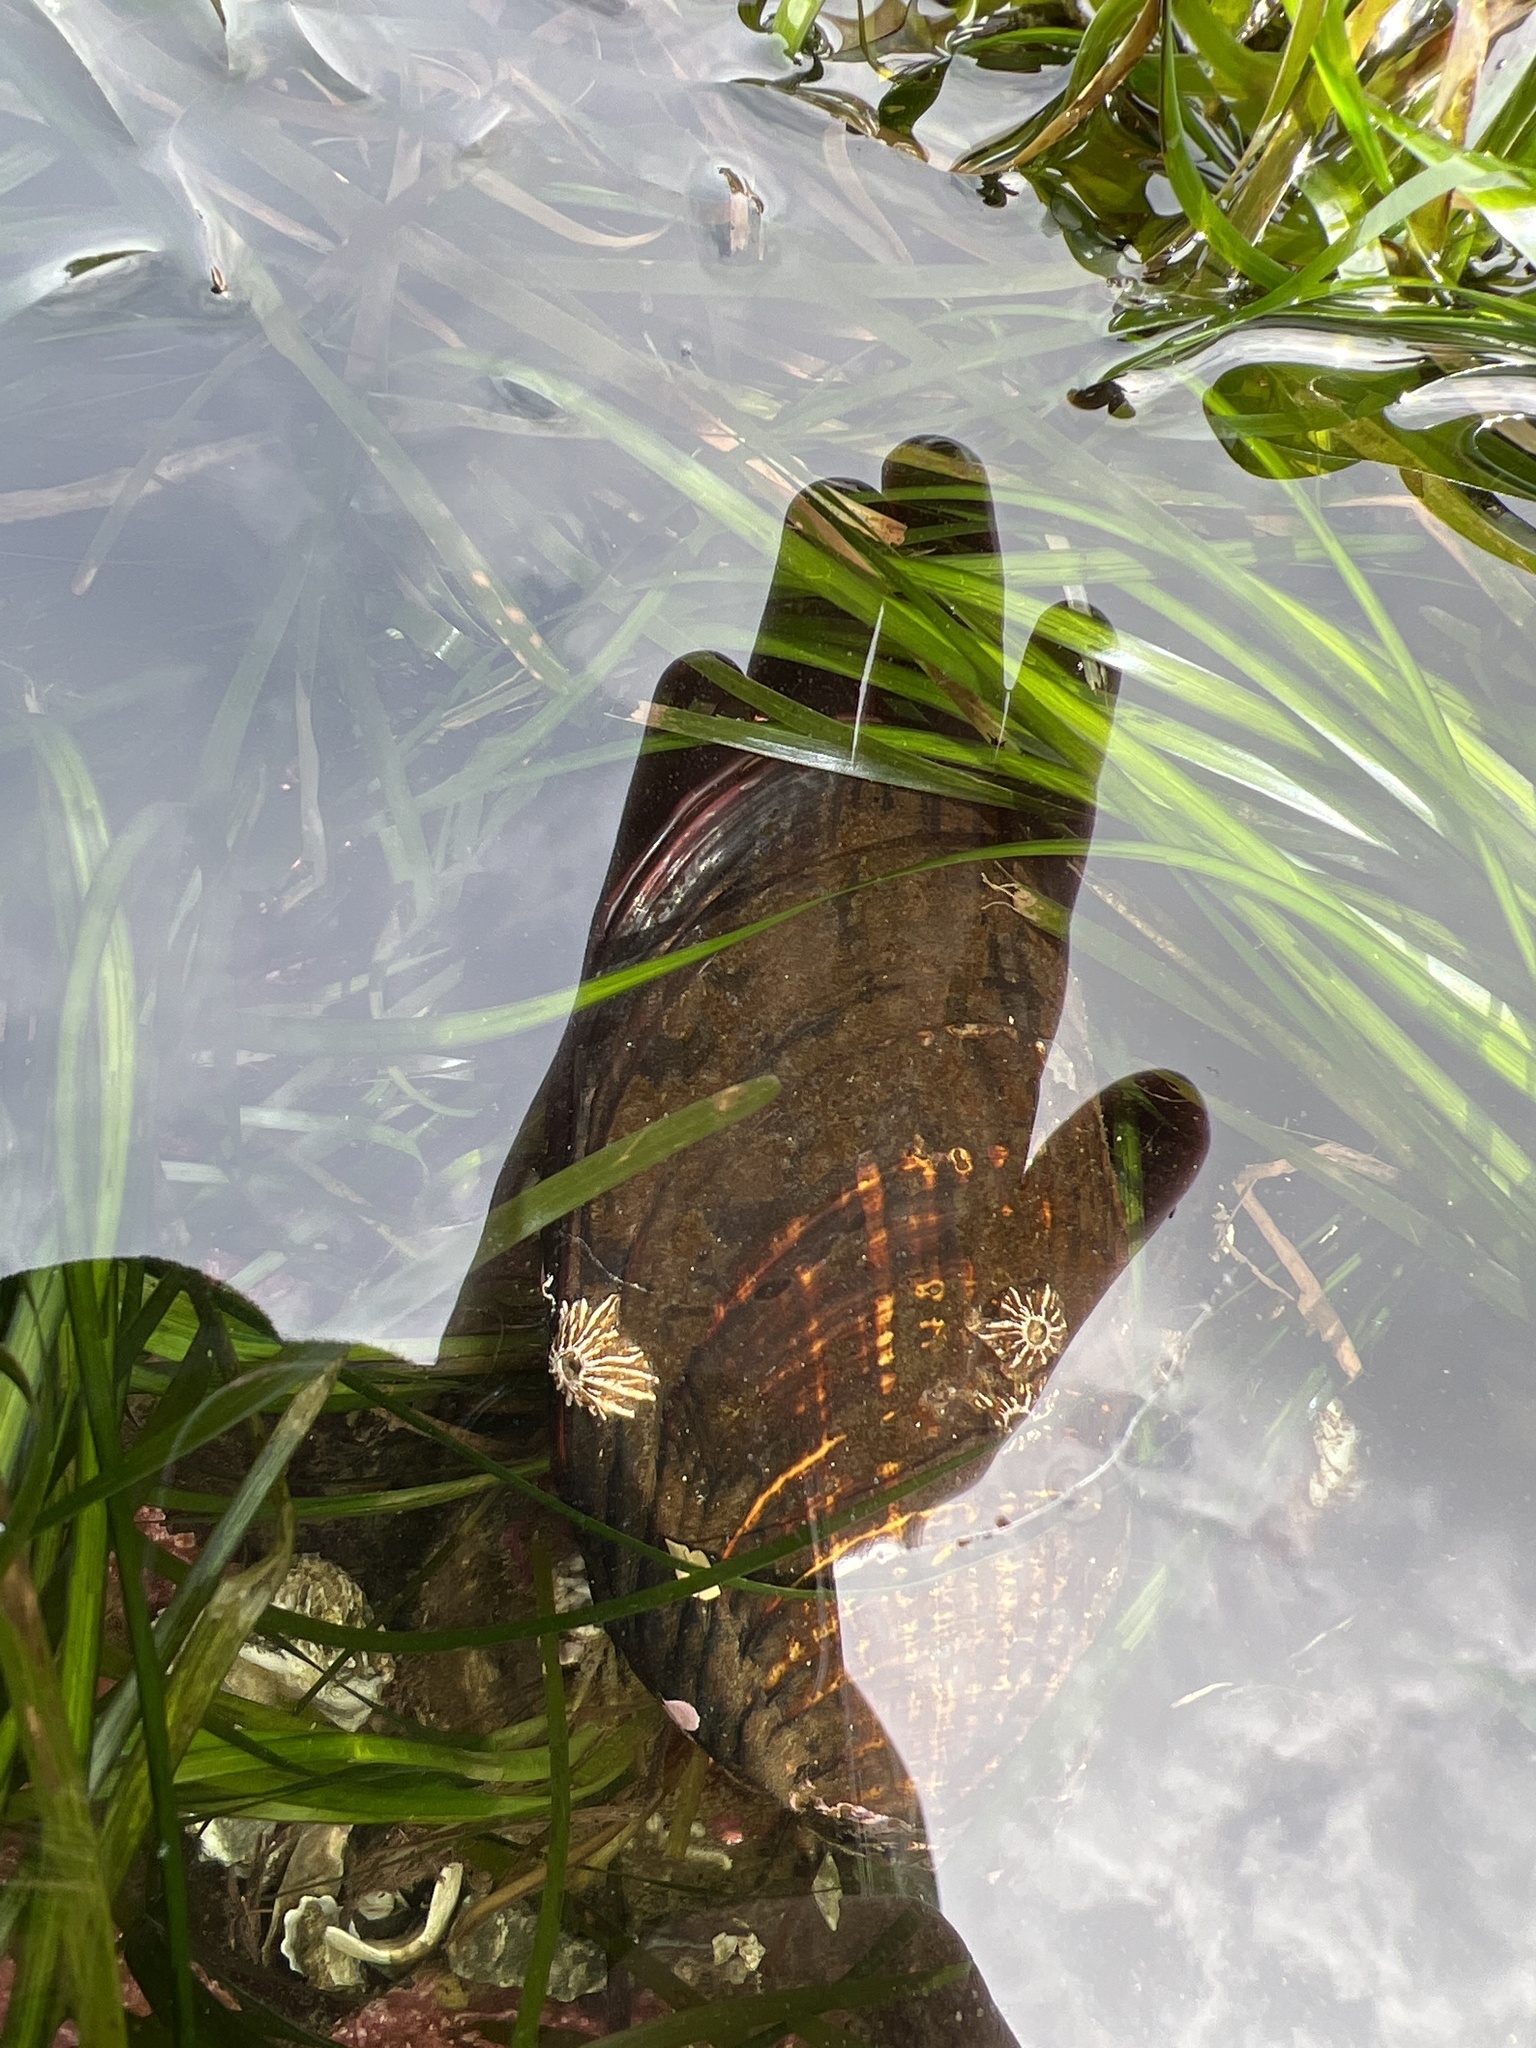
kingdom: Animalia
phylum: Mollusca
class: Bivalvia
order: Mytilida
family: Mytilidae
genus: Mytilus
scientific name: Mytilus californianus
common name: California mussel
